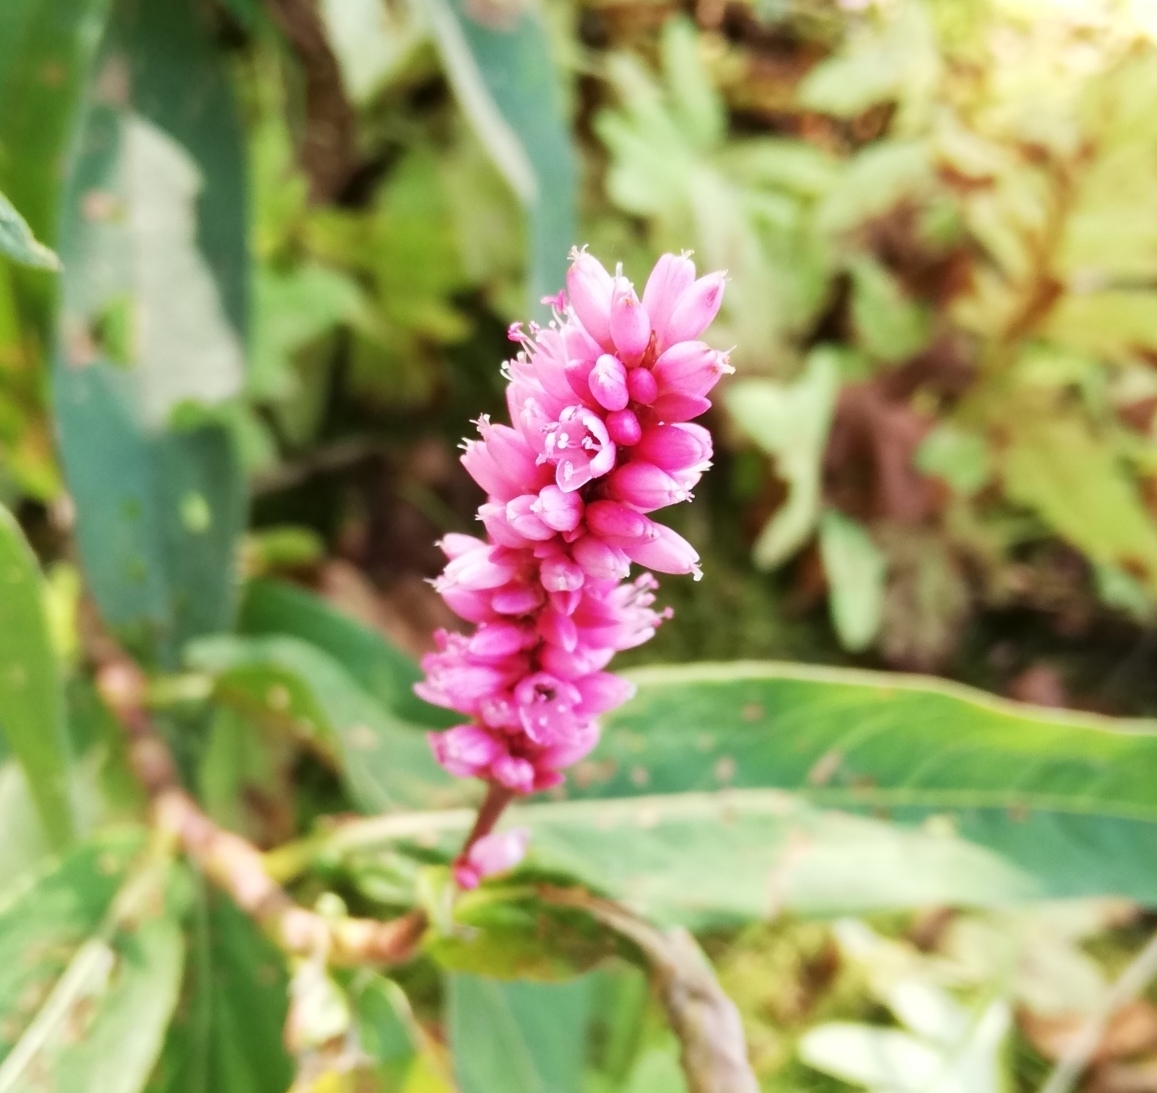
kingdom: Plantae
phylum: Tracheophyta
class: Magnoliopsida
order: Caryophyllales
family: Polygonaceae
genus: Persicaria
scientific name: Persicaria amphibia
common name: Amphibious bistort
